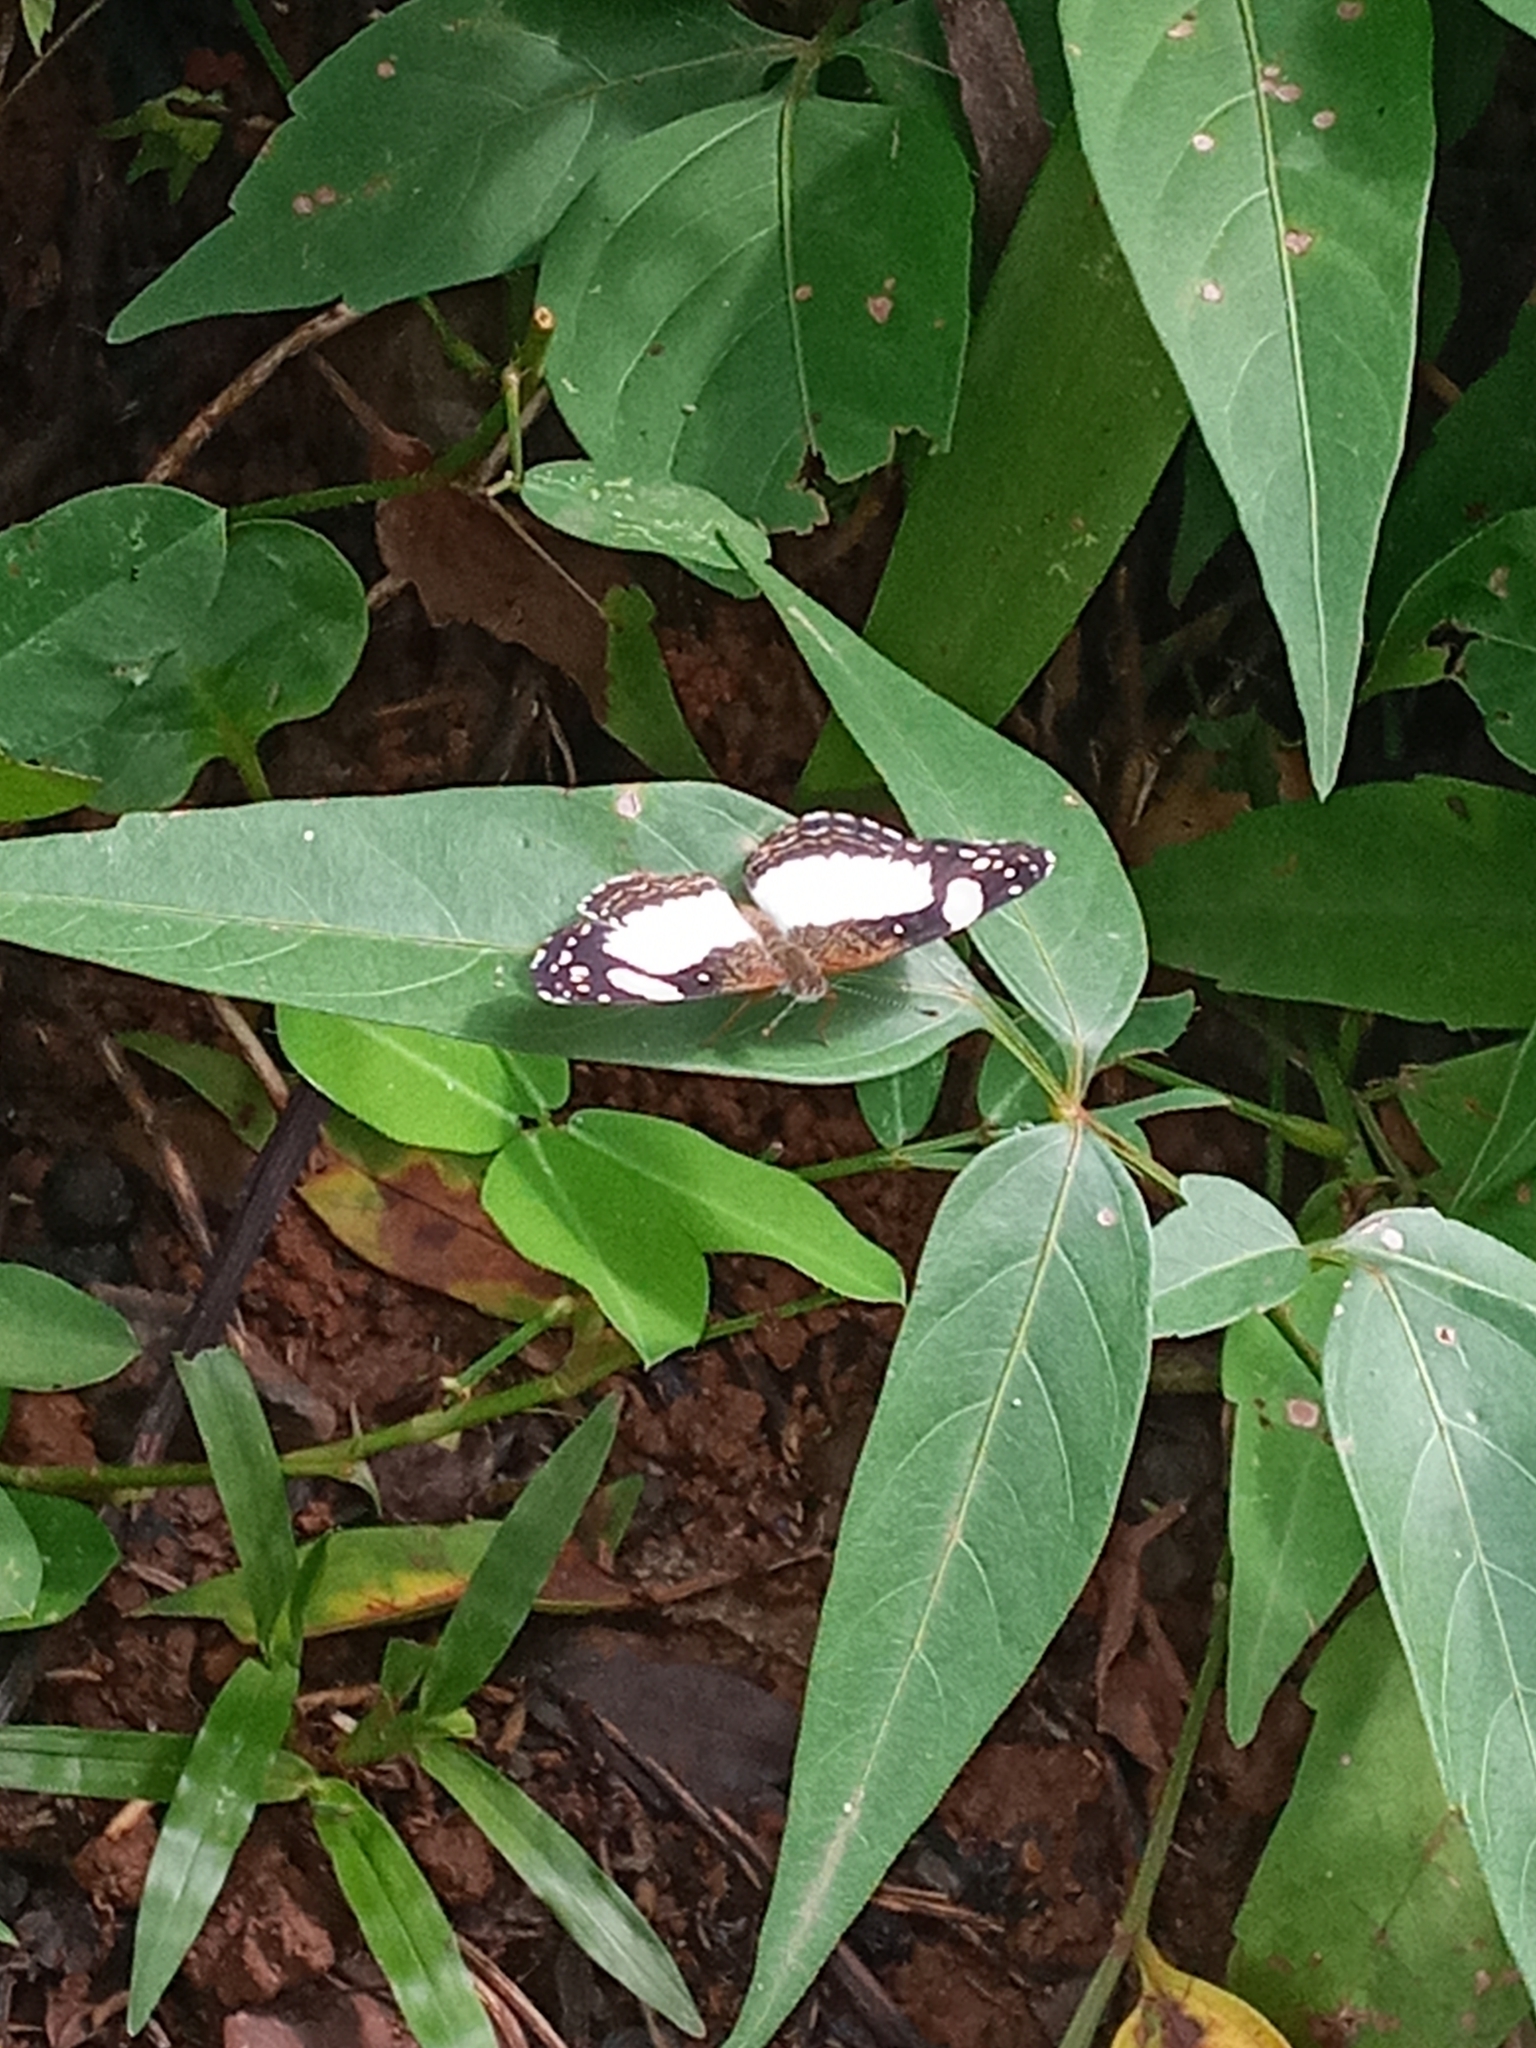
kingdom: Animalia
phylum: Arthropoda
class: Insecta
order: Lepidoptera
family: Nymphalidae
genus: Janatella
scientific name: Janatella leucodesma
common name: Whitened crescent
